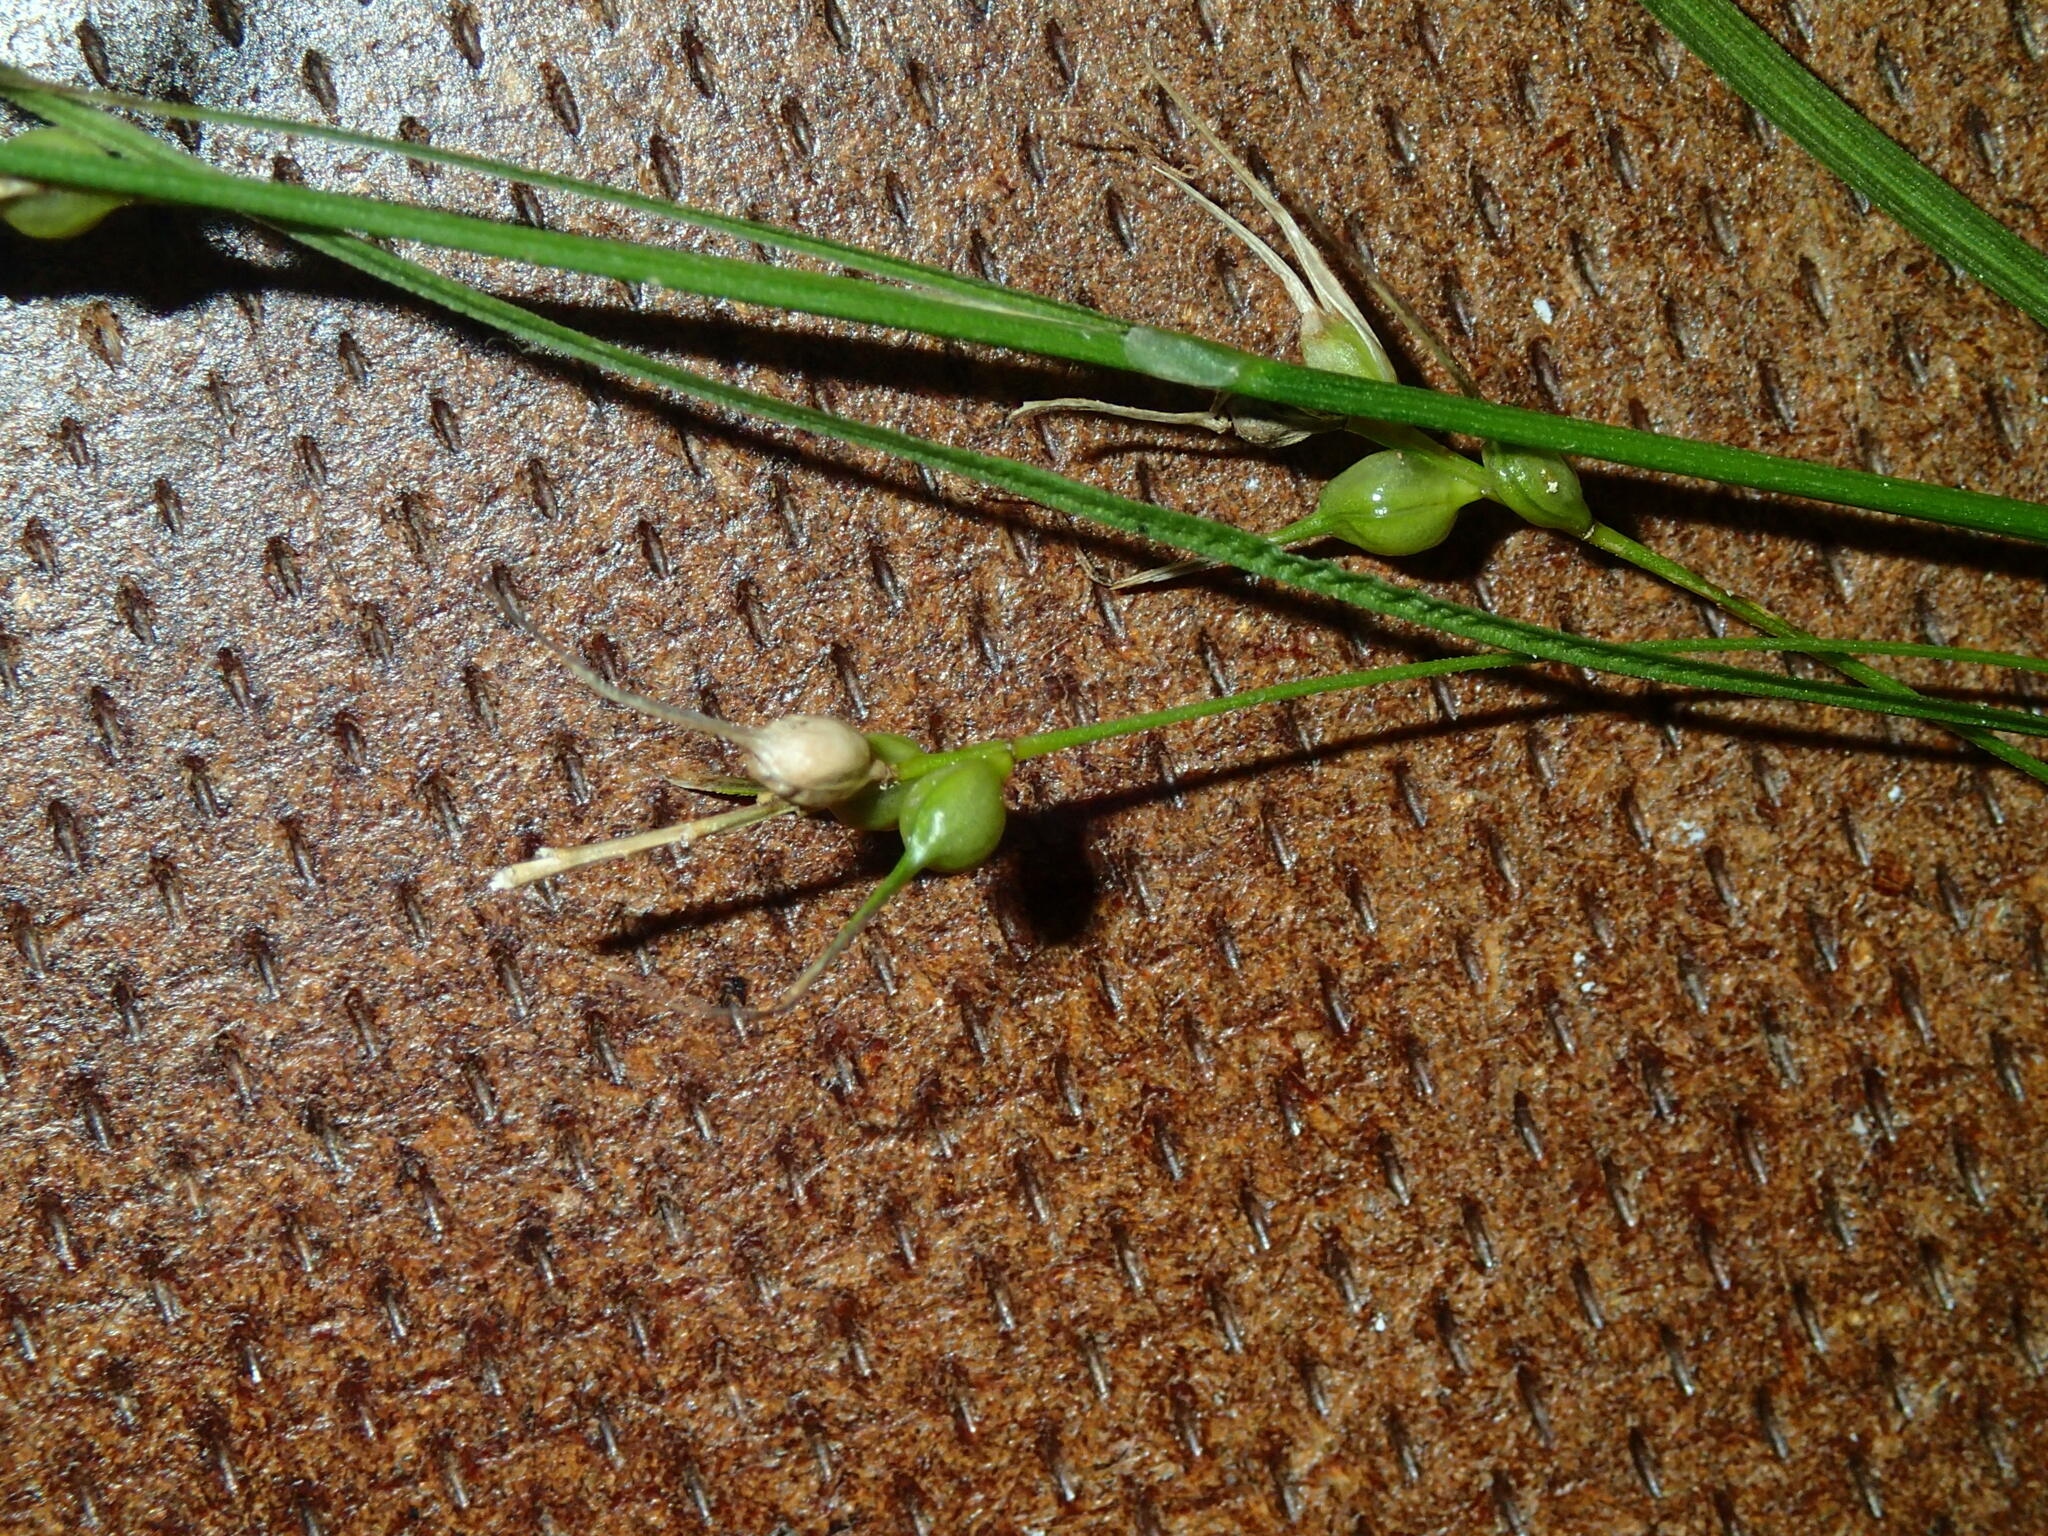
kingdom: Plantae
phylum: Tracheophyta
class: Liliopsida
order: Poales
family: Cyperaceae
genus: Carex
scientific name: Carex sprengelii
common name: Long-beaked sedge
